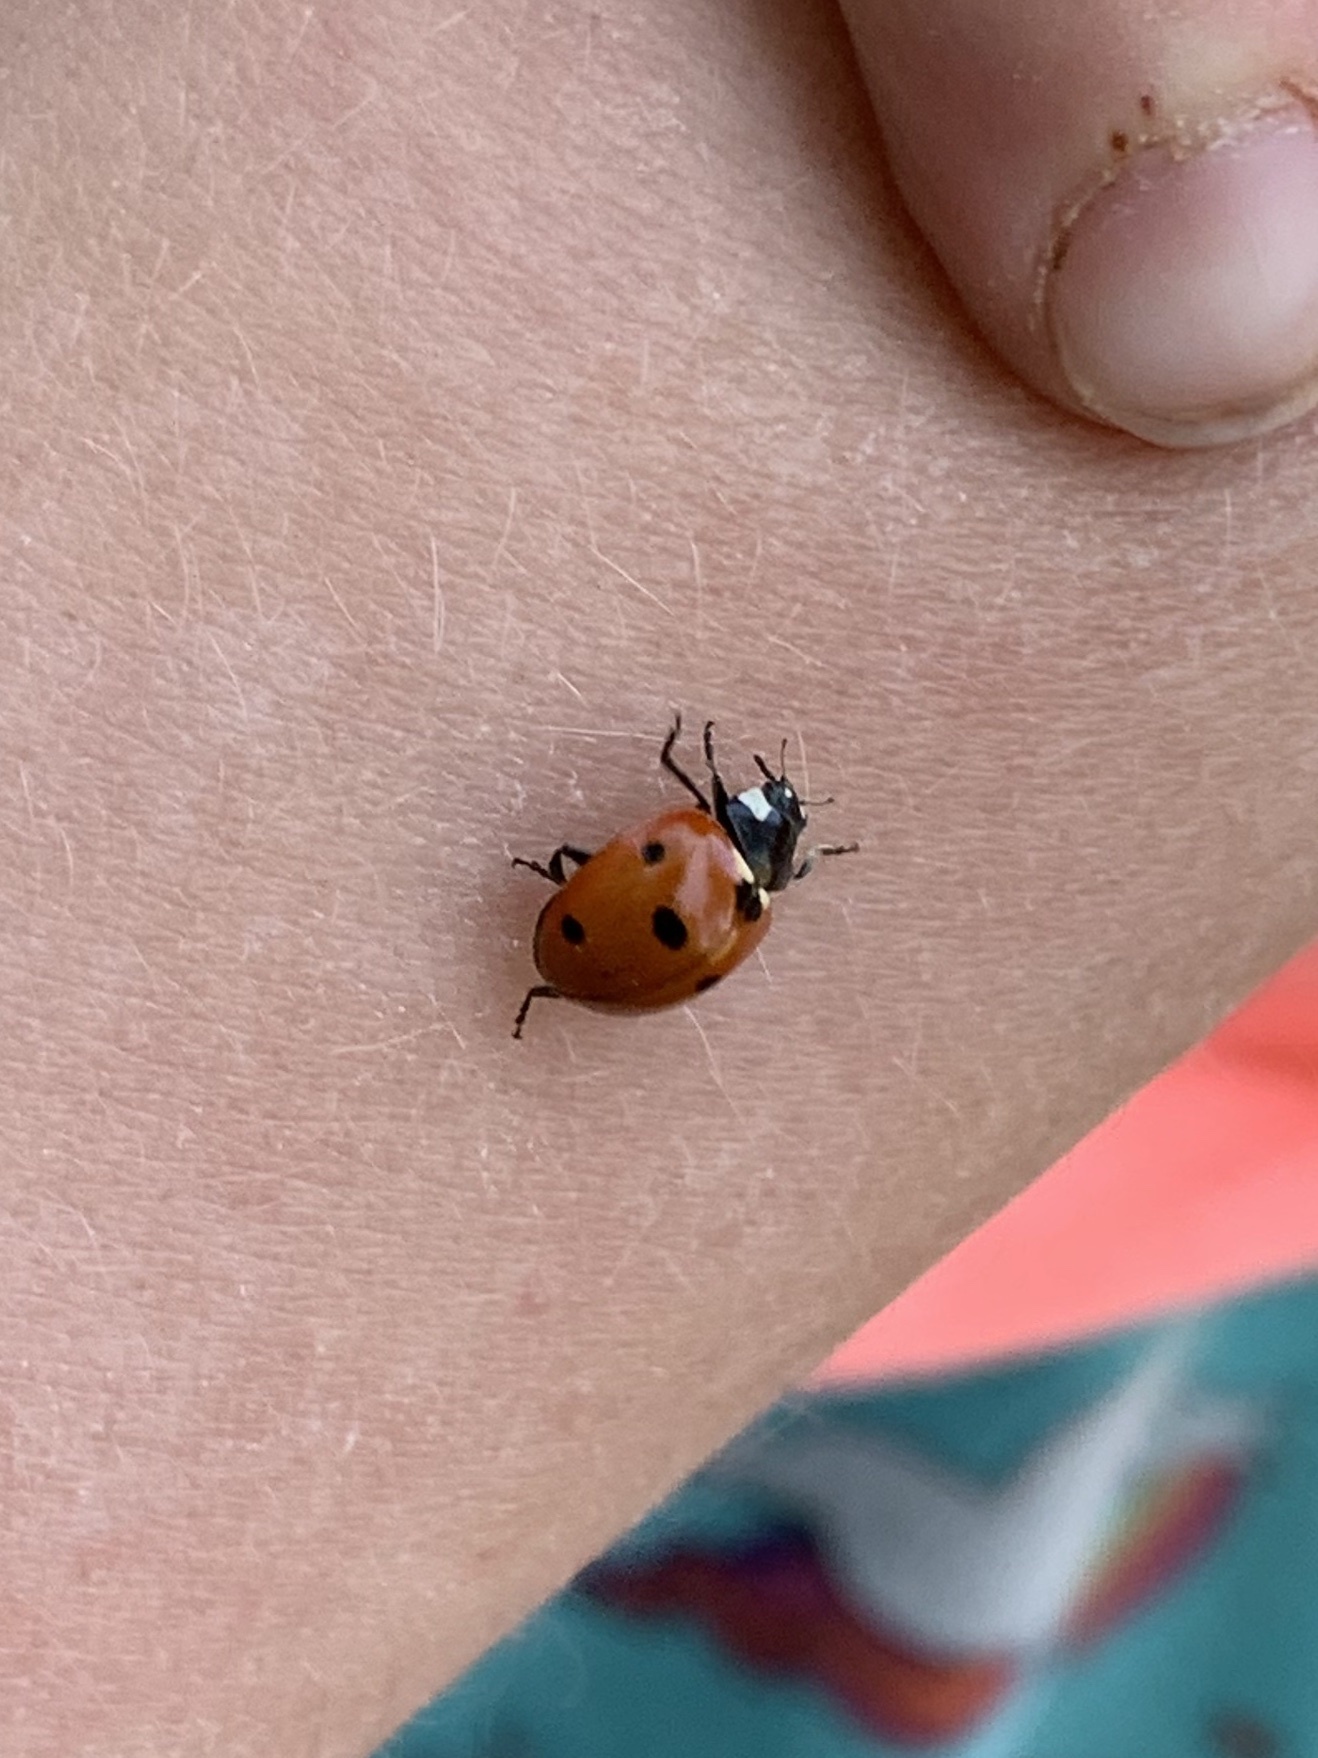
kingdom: Animalia
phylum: Arthropoda
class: Insecta
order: Coleoptera
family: Coccinellidae
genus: Coccinella
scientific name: Coccinella septempunctata
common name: Sevenspotted lady beetle
